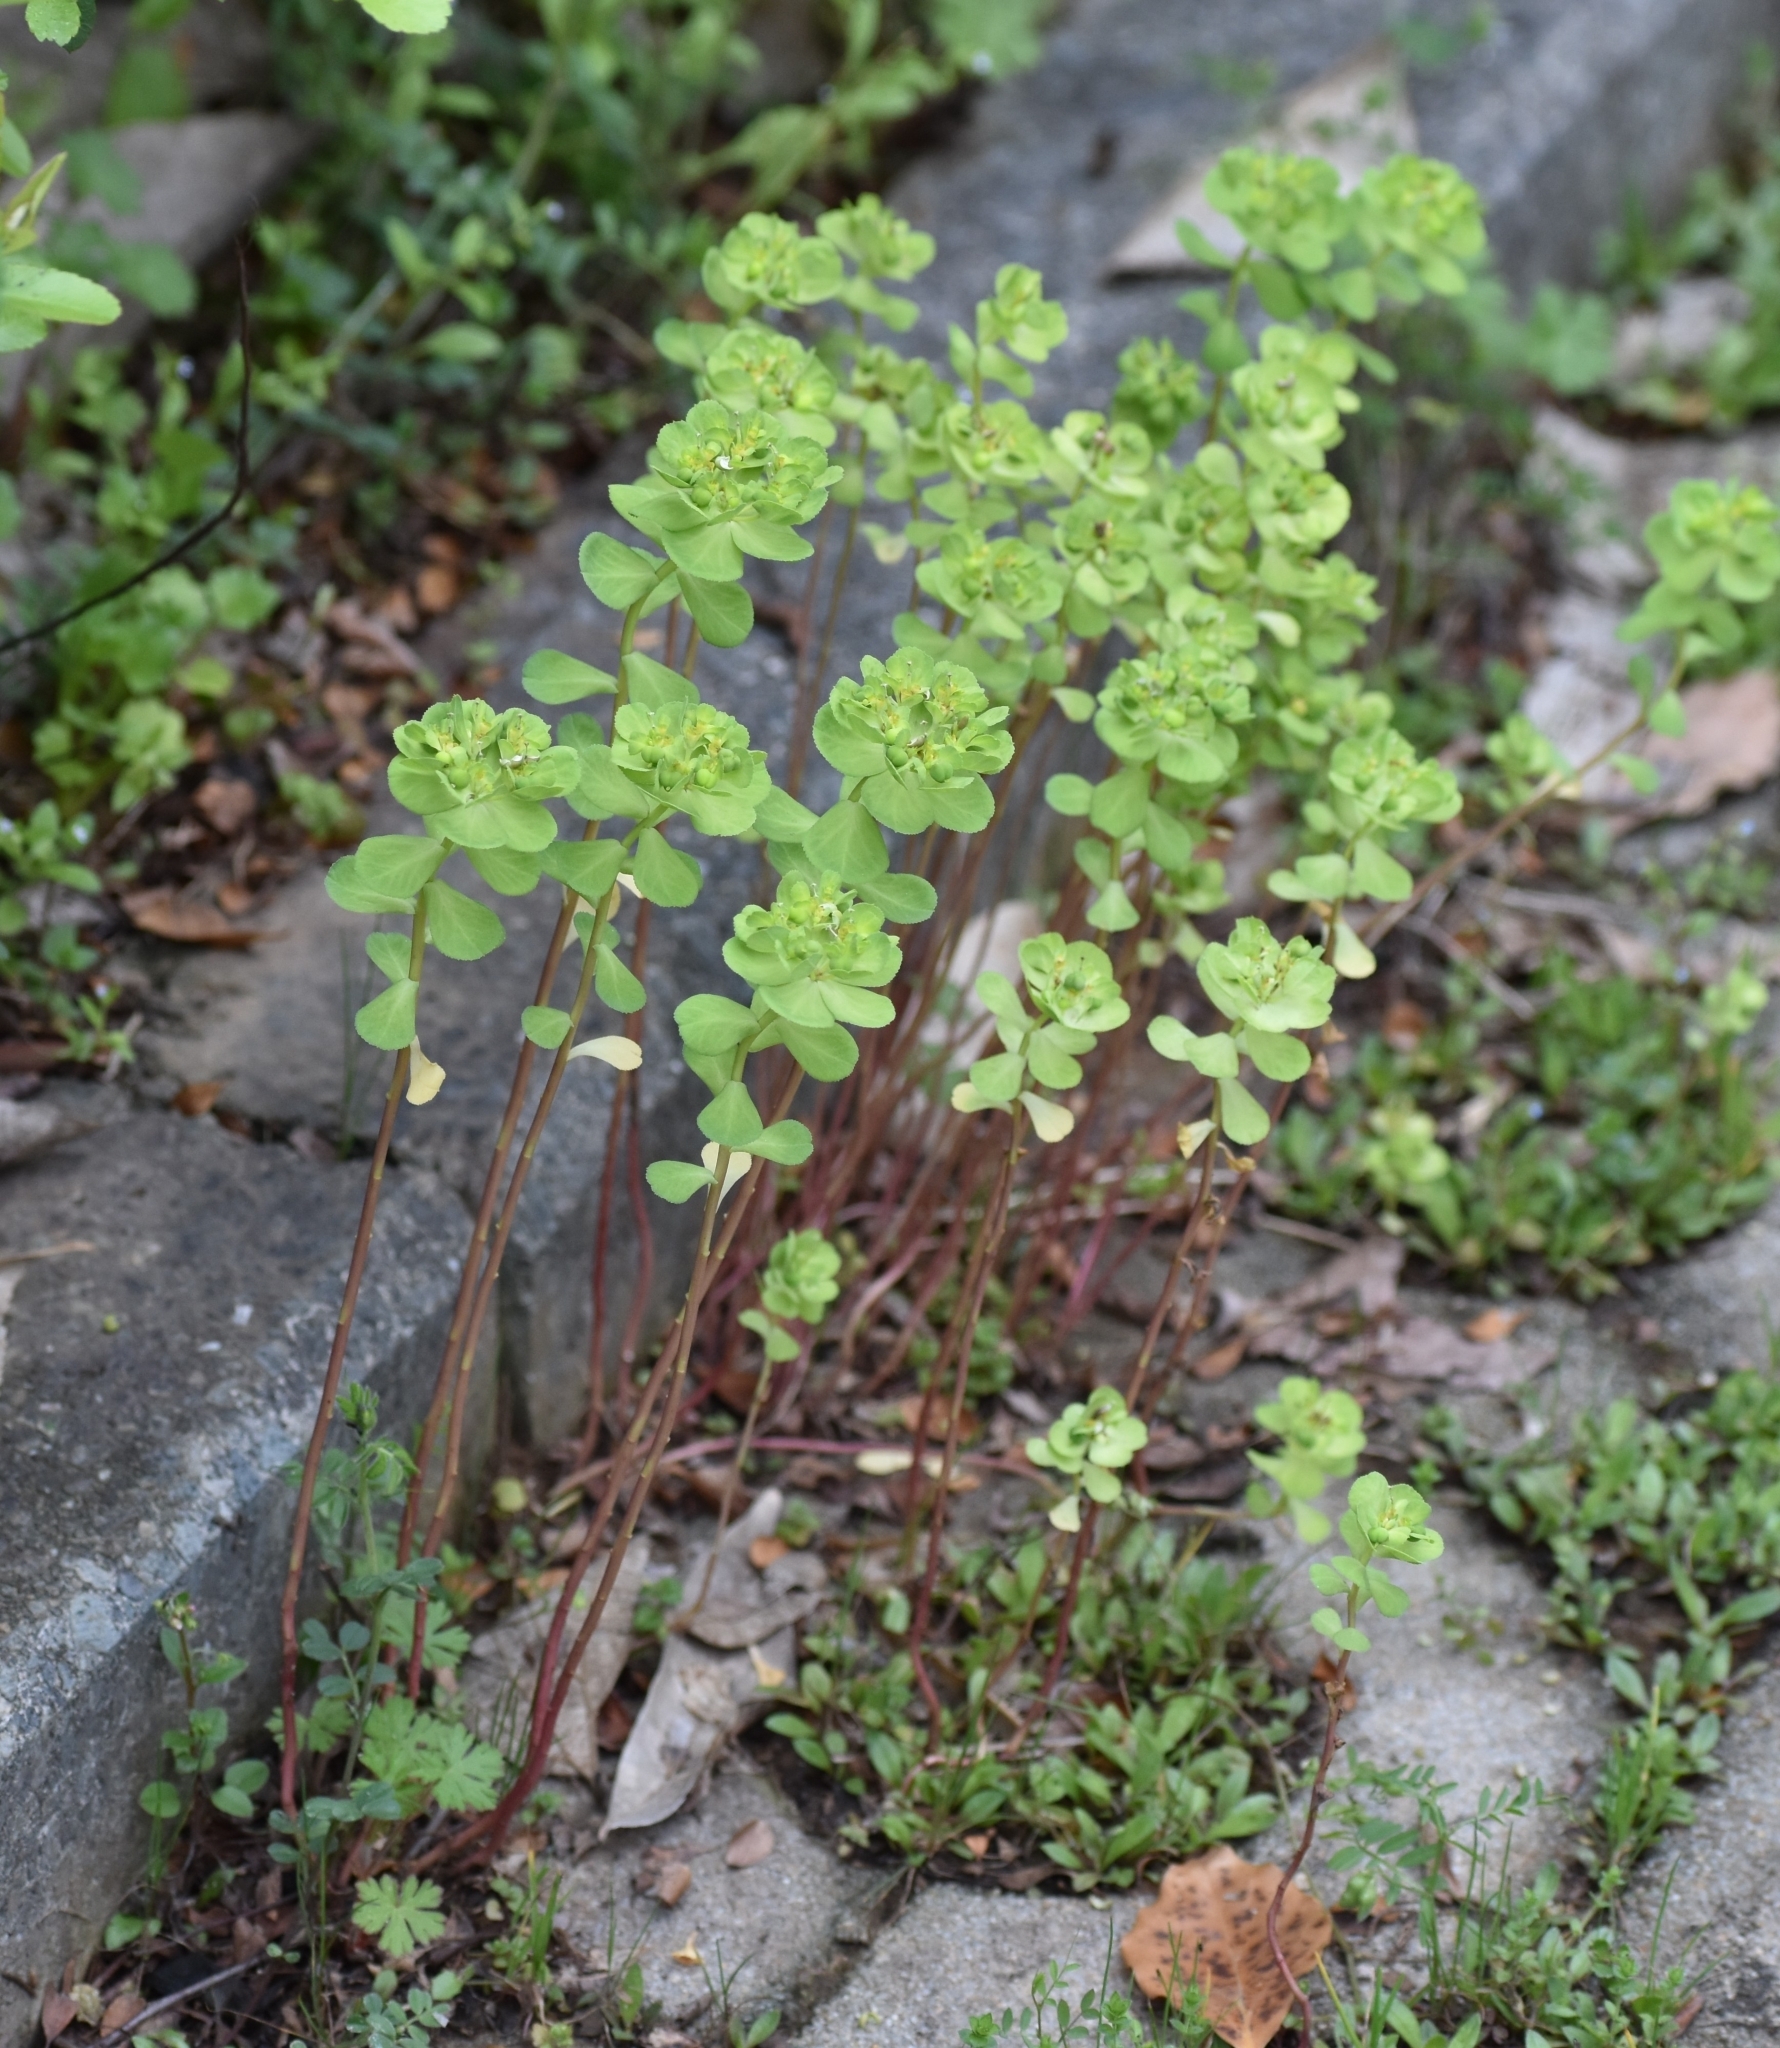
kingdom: Plantae
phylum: Tracheophyta
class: Magnoliopsida
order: Malpighiales
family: Euphorbiaceae
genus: Euphorbia
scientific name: Euphorbia helioscopia
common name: Sun spurge
